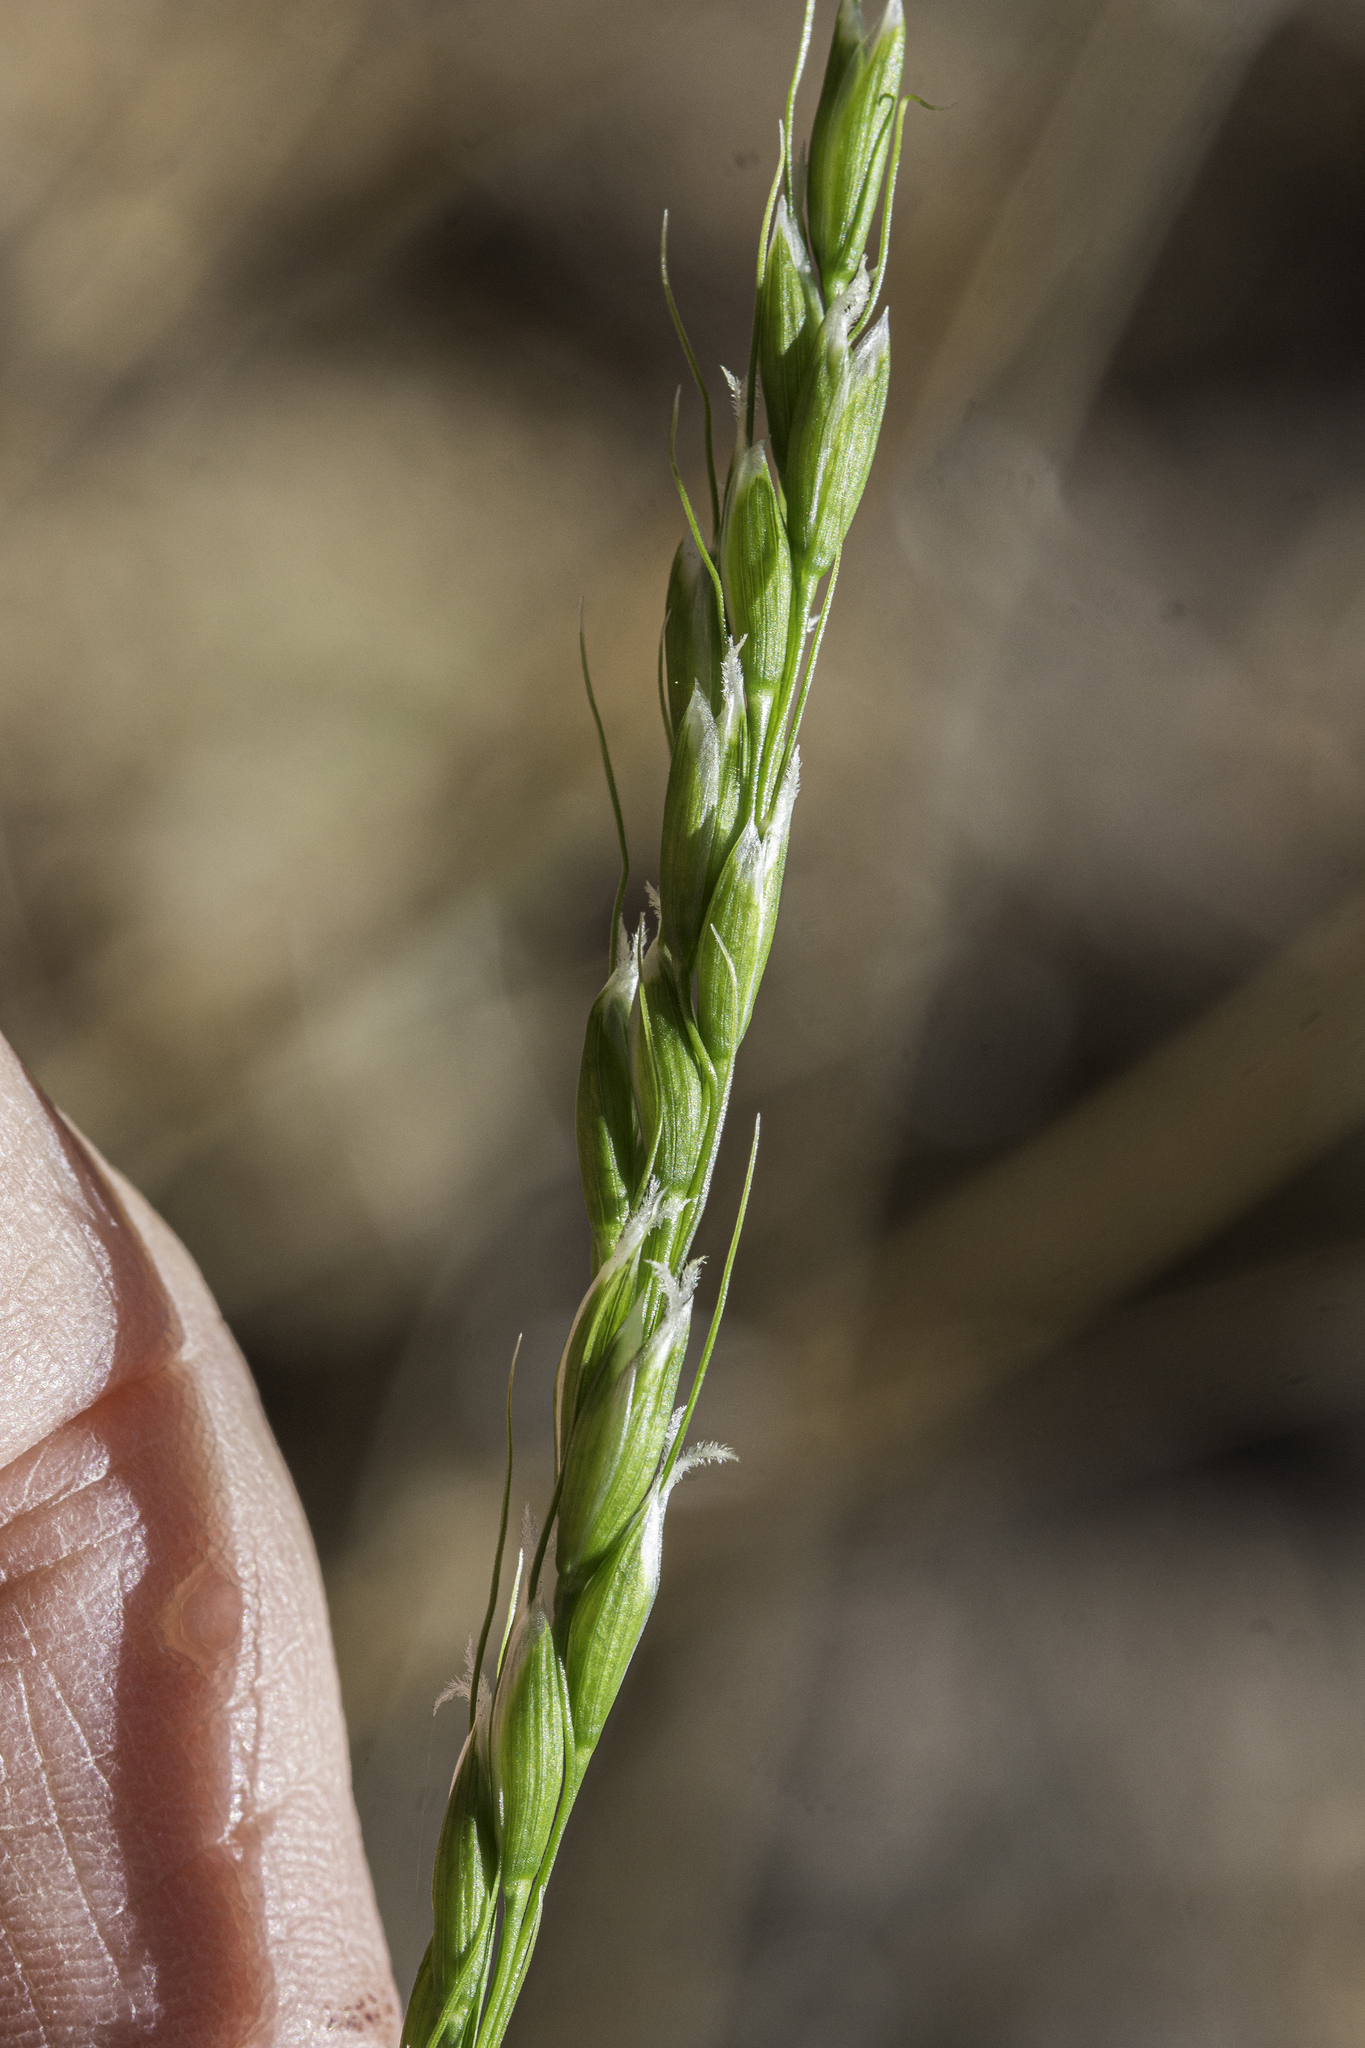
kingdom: Plantae
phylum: Tracheophyta
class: Liliopsida
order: Poales
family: Poaceae
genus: Oryzopsis
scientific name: Oryzopsis asperifolia
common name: Rough-leaved mountain rice
